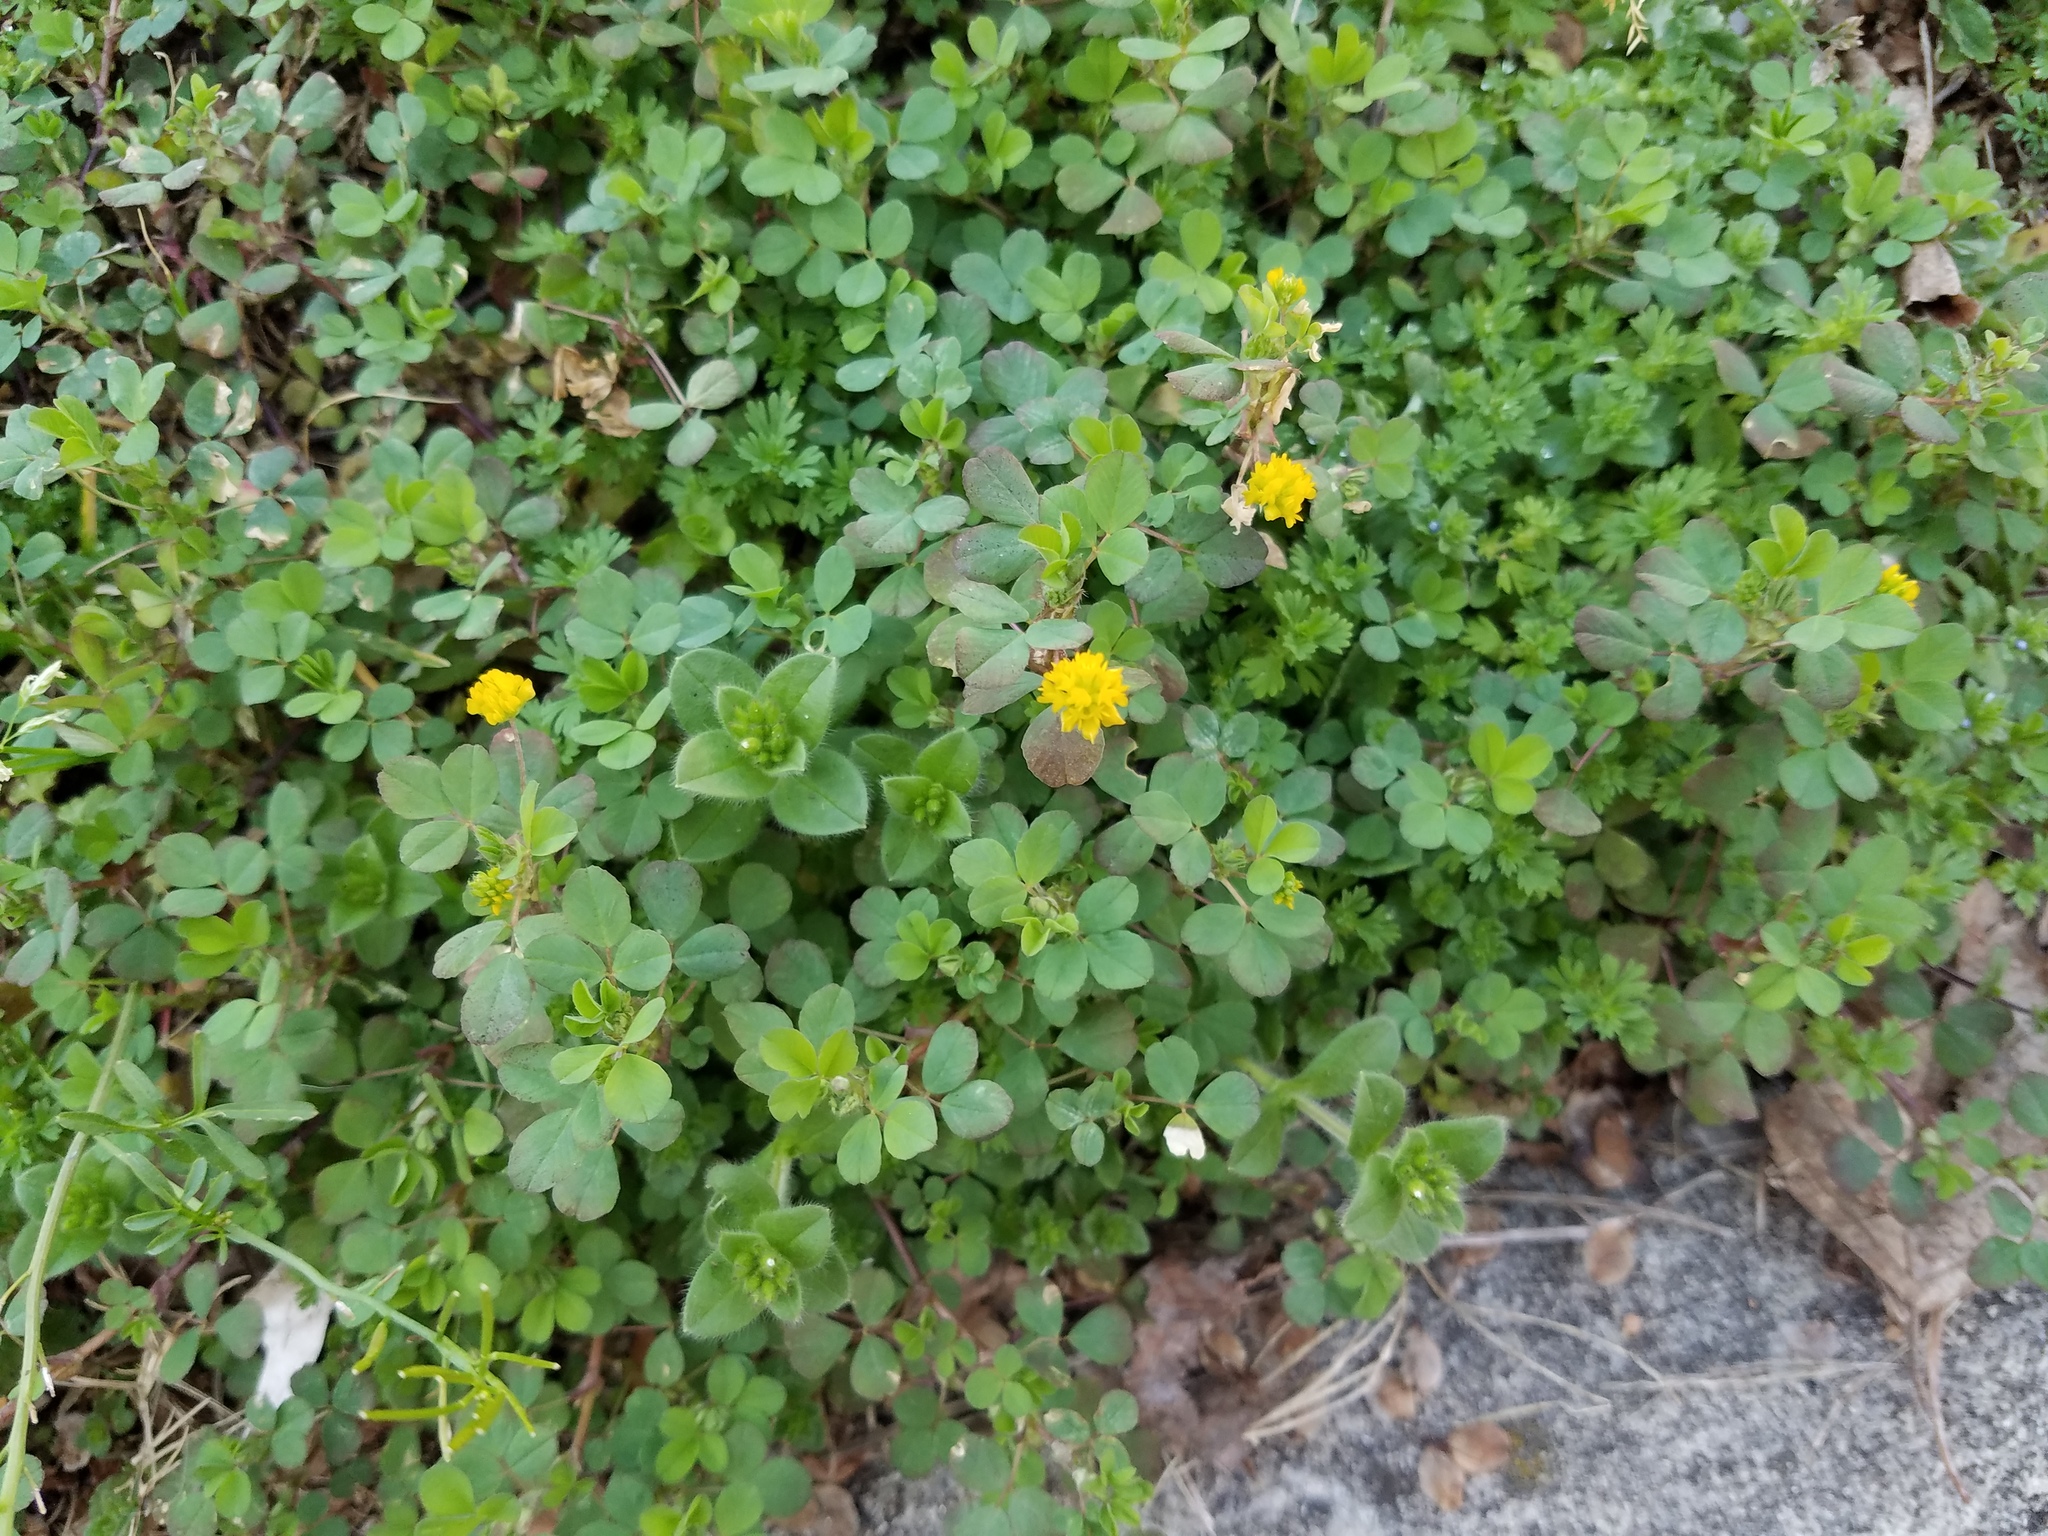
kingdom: Plantae
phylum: Tracheophyta
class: Magnoliopsida
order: Fabales
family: Fabaceae
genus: Trifolium
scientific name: Trifolium dubium
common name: Suckling clover
